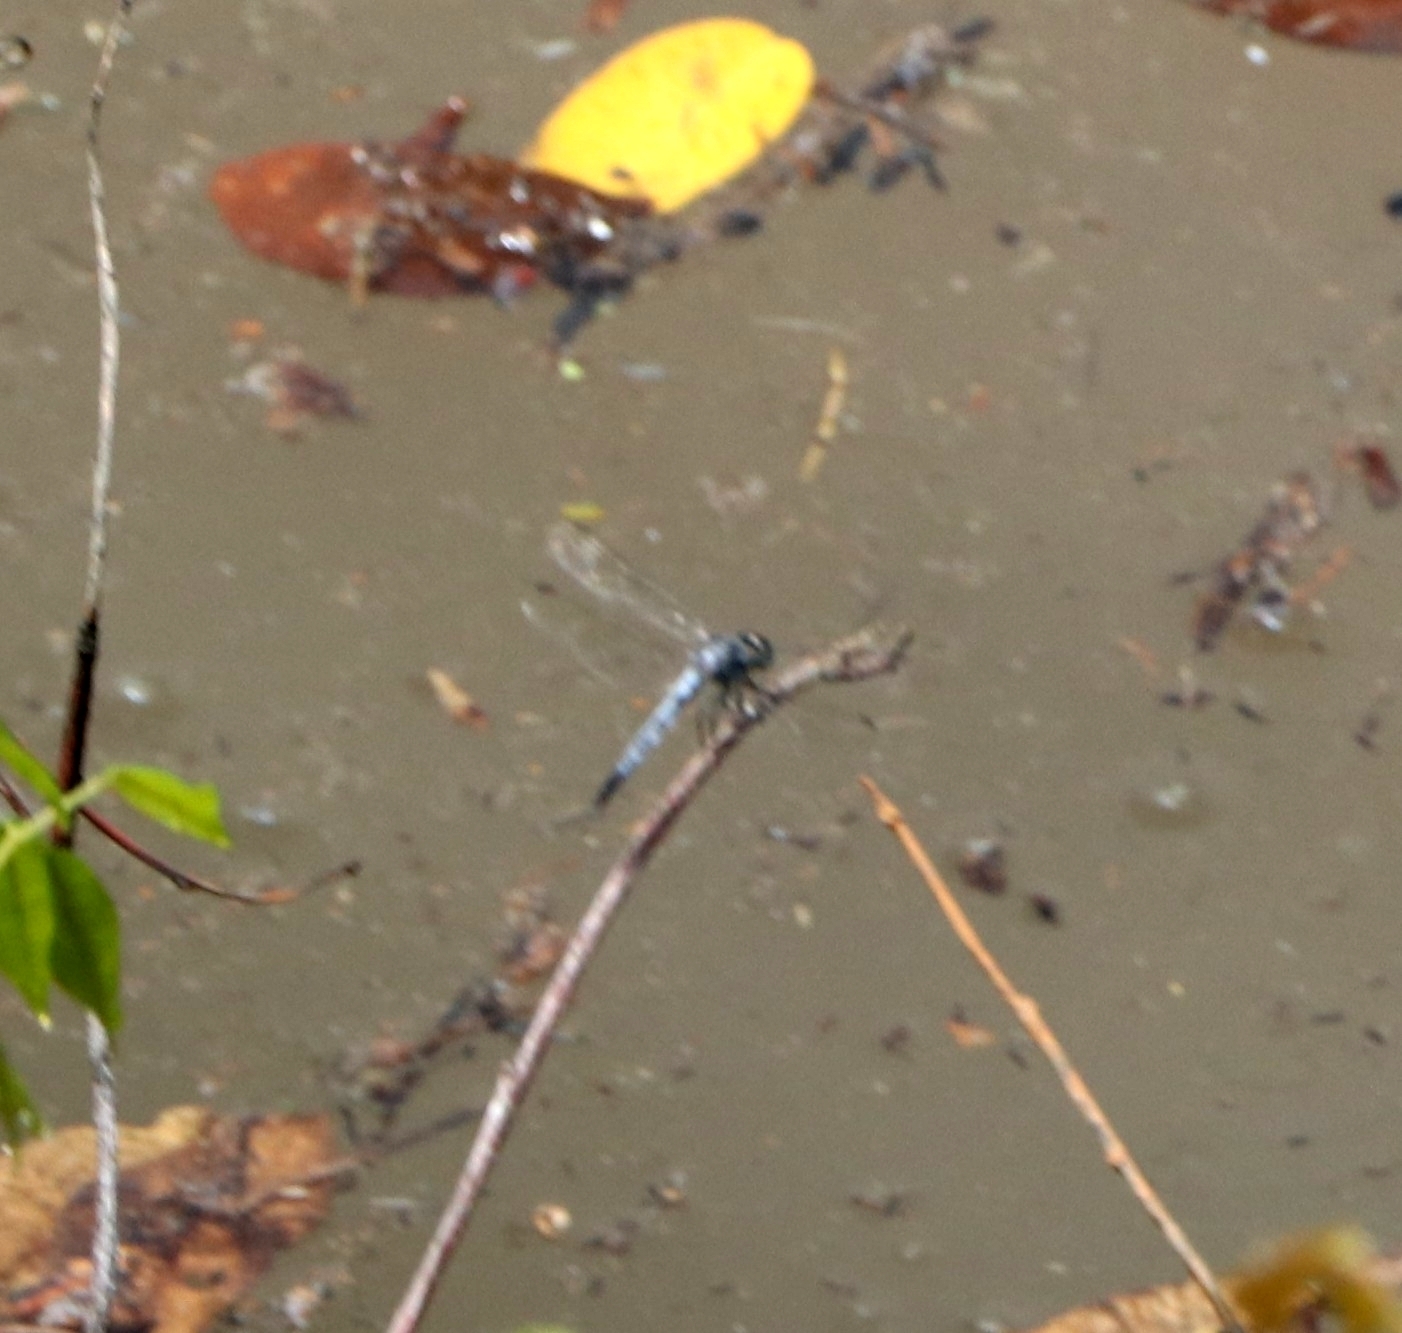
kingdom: Animalia
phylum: Arthropoda
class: Insecta
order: Odonata
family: Libellulidae
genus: Brachydiplax
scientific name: Brachydiplax sobrina
